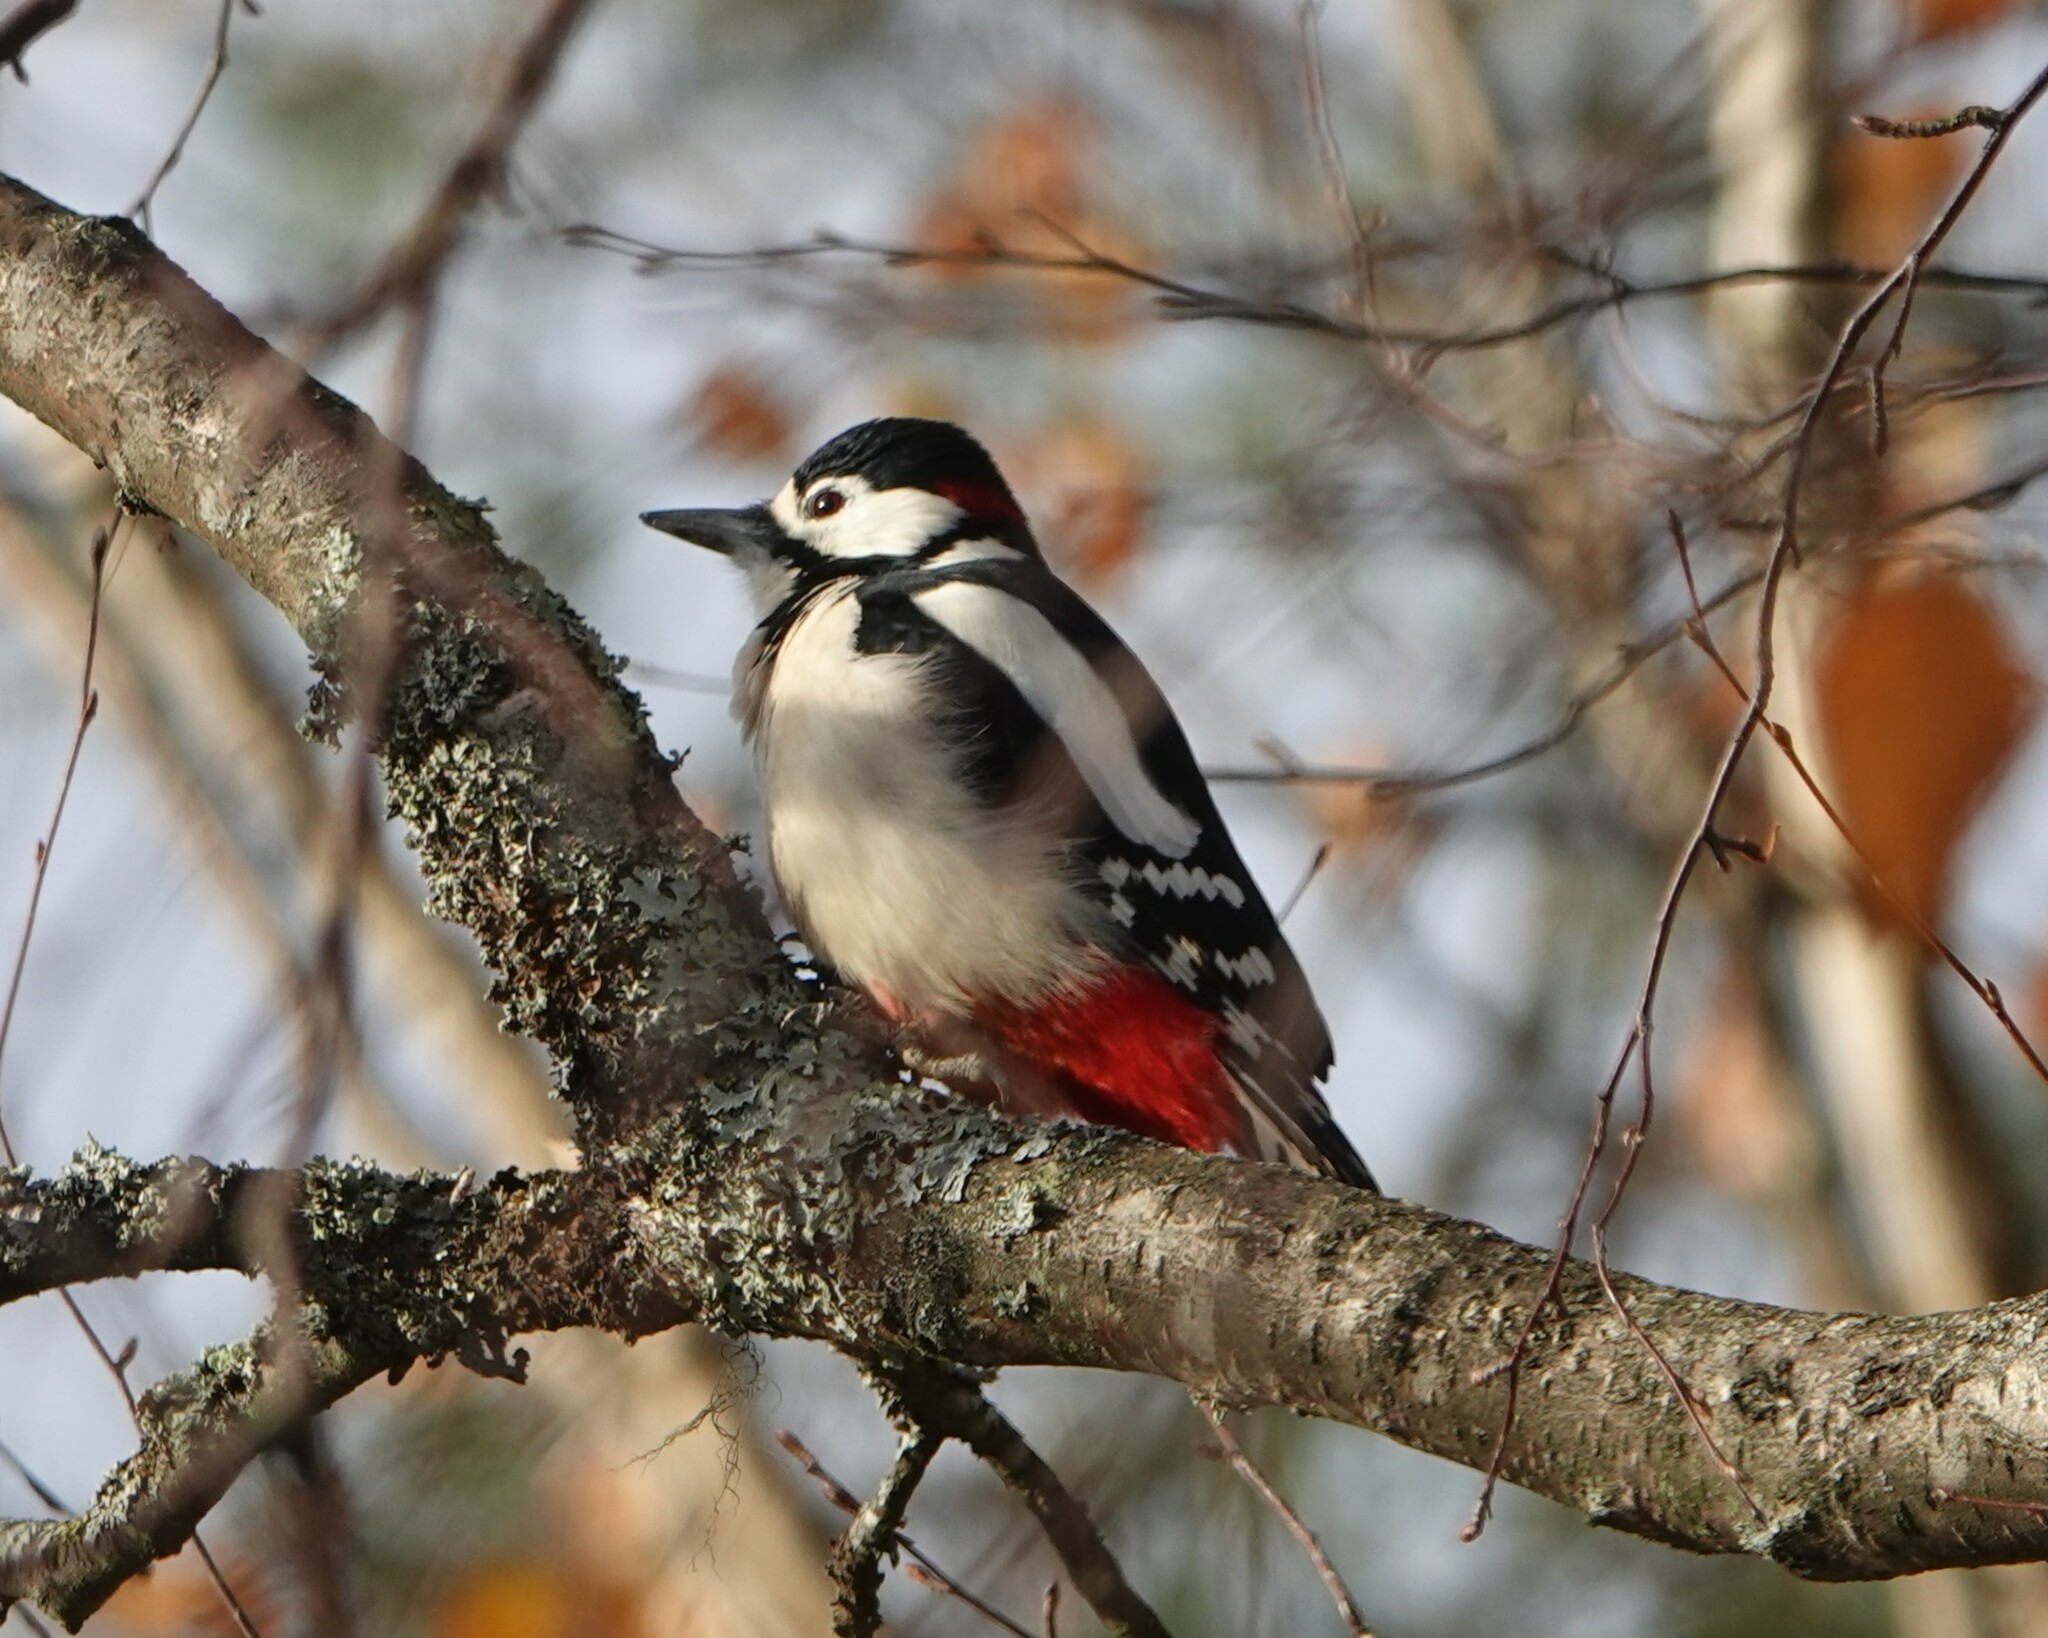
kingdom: Animalia
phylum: Chordata
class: Aves
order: Piciformes
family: Picidae
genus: Dendrocopos
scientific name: Dendrocopos major
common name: Great spotted woodpecker
